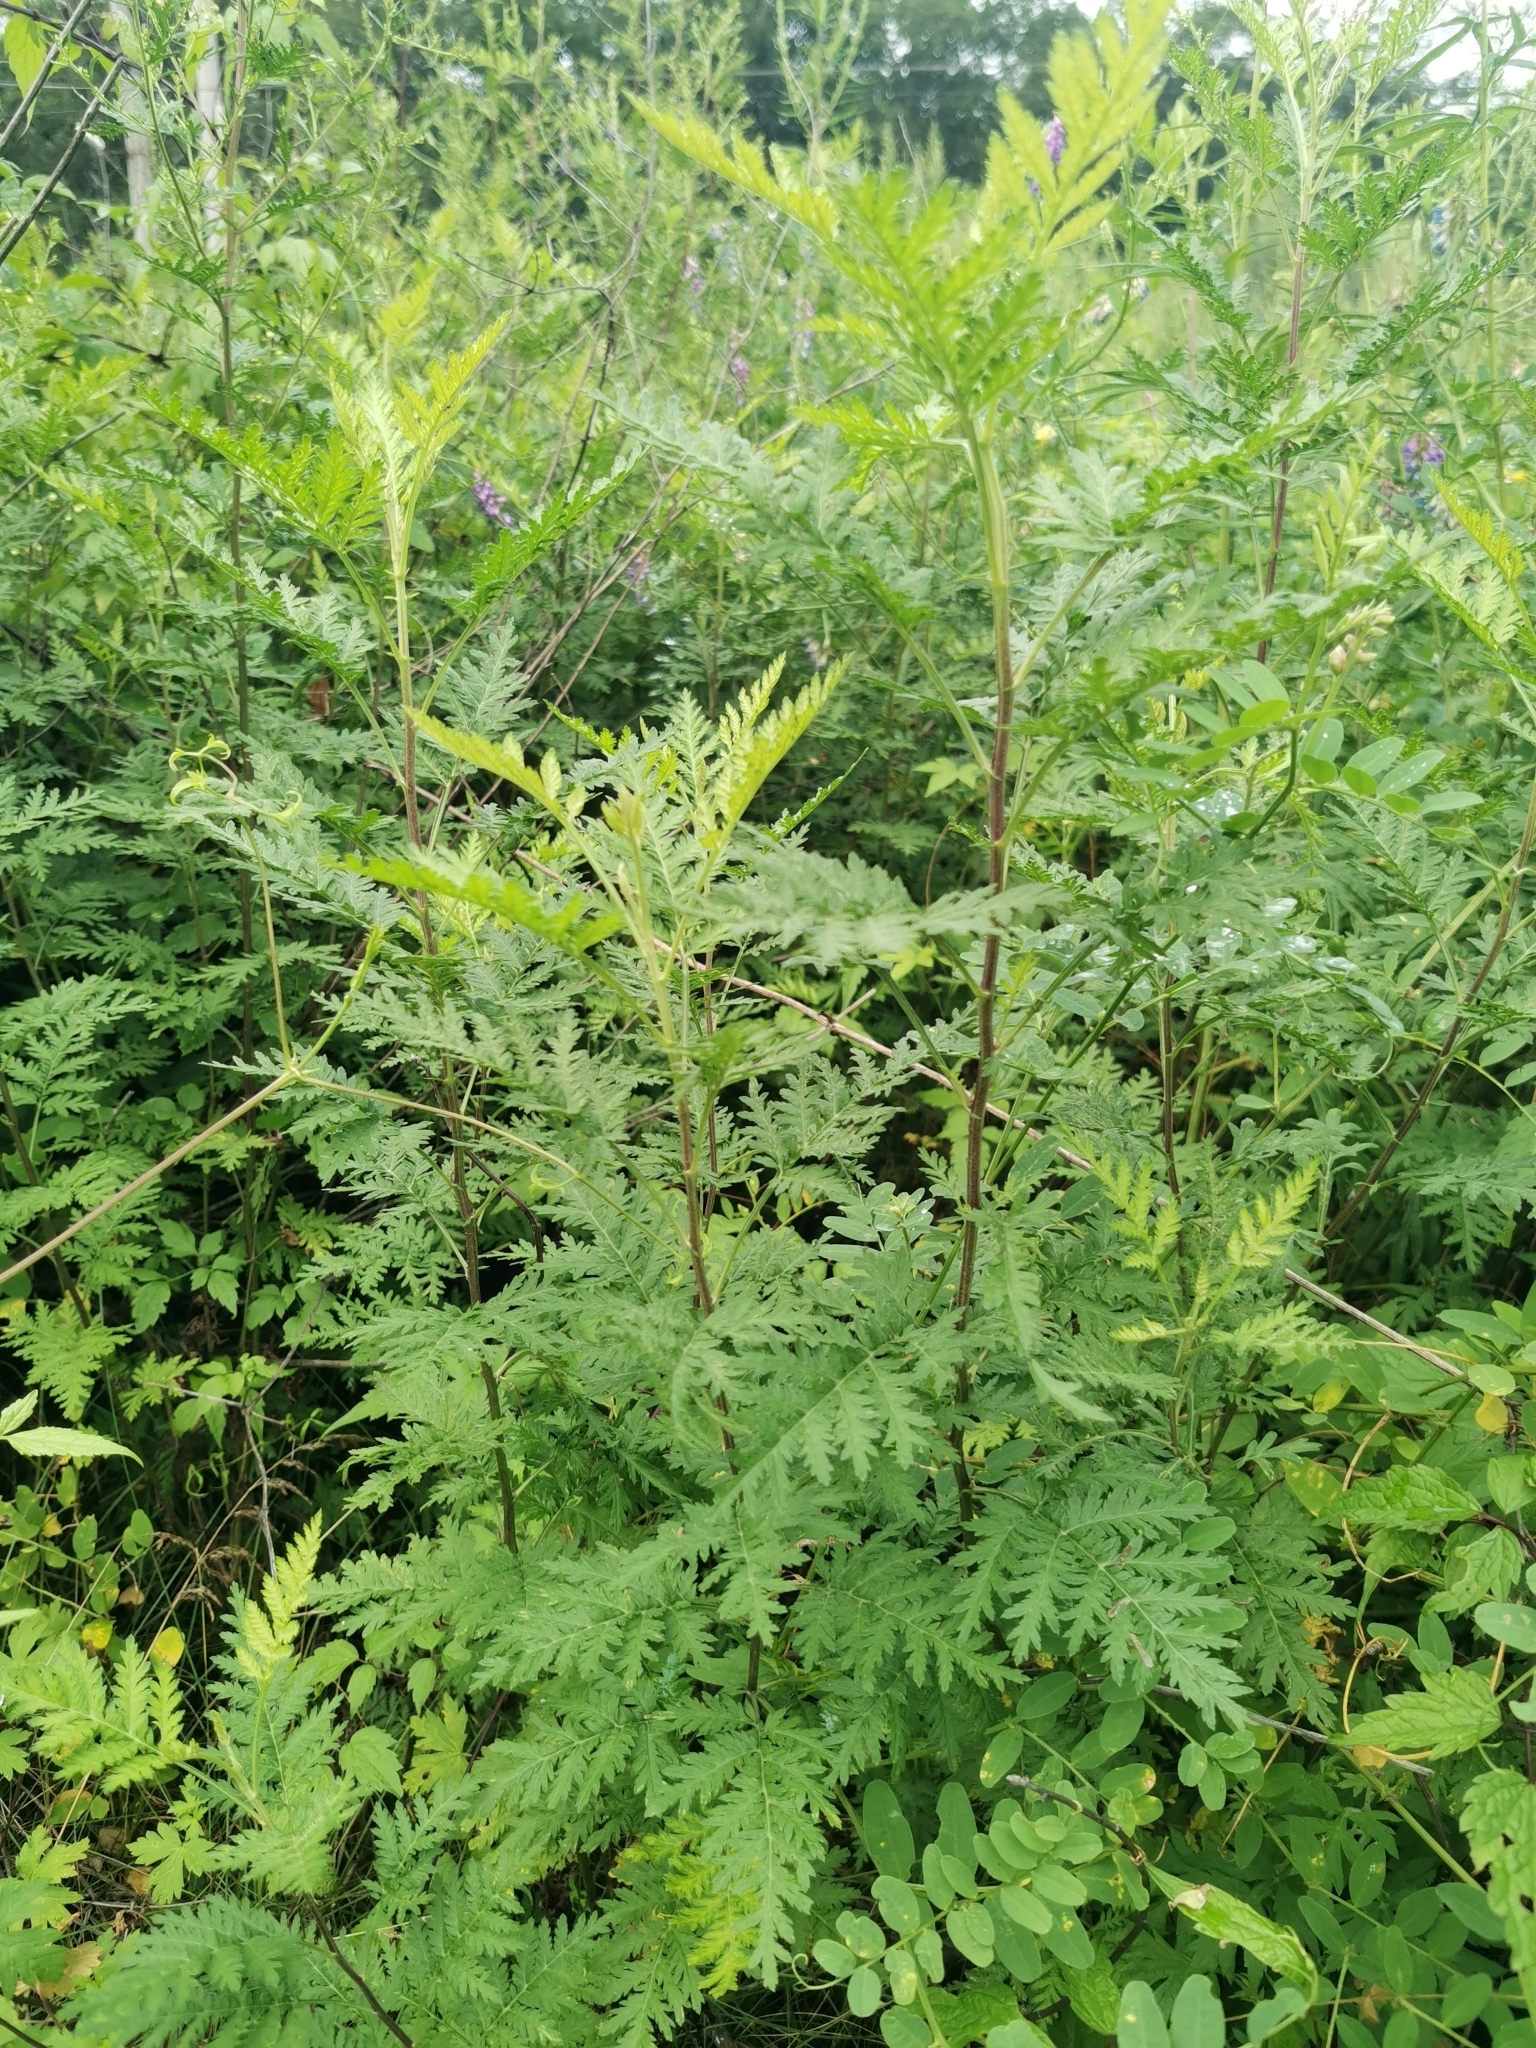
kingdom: Plantae
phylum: Tracheophyta
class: Magnoliopsida
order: Asterales
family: Asteraceae
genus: Artemisia
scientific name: Artemisia gmelinii
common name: Gmelin's wormwood
